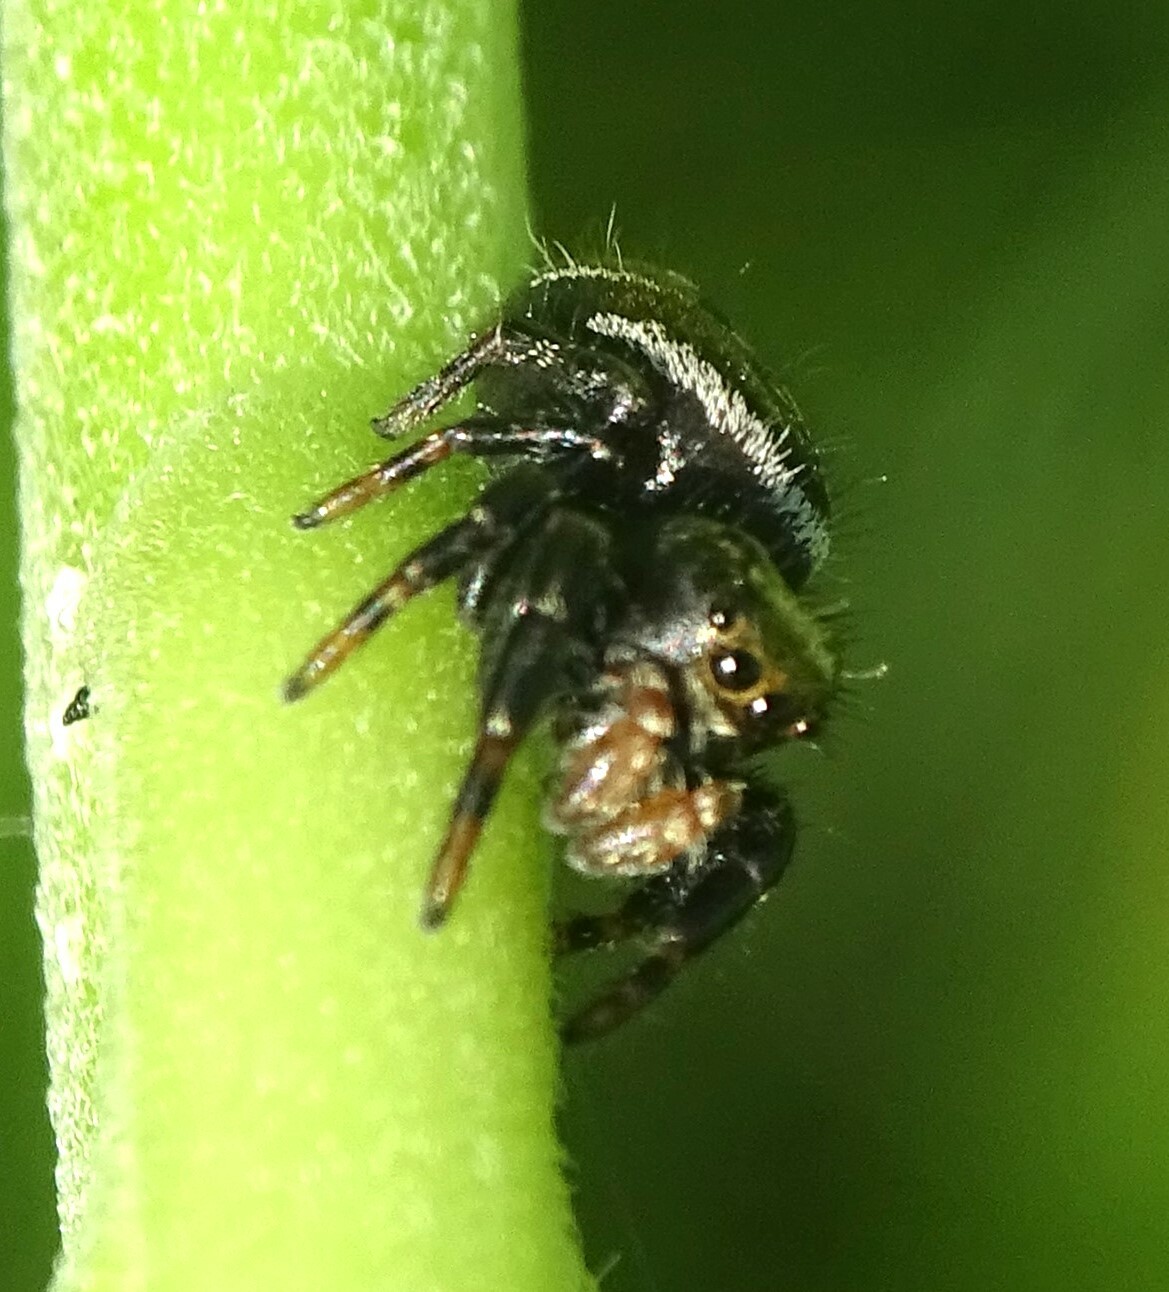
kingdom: Animalia
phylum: Arthropoda
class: Arachnida
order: Araneae
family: Salticidae
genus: Phidippus
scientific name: Phidippus clarus
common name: Brilliant jumping spider
